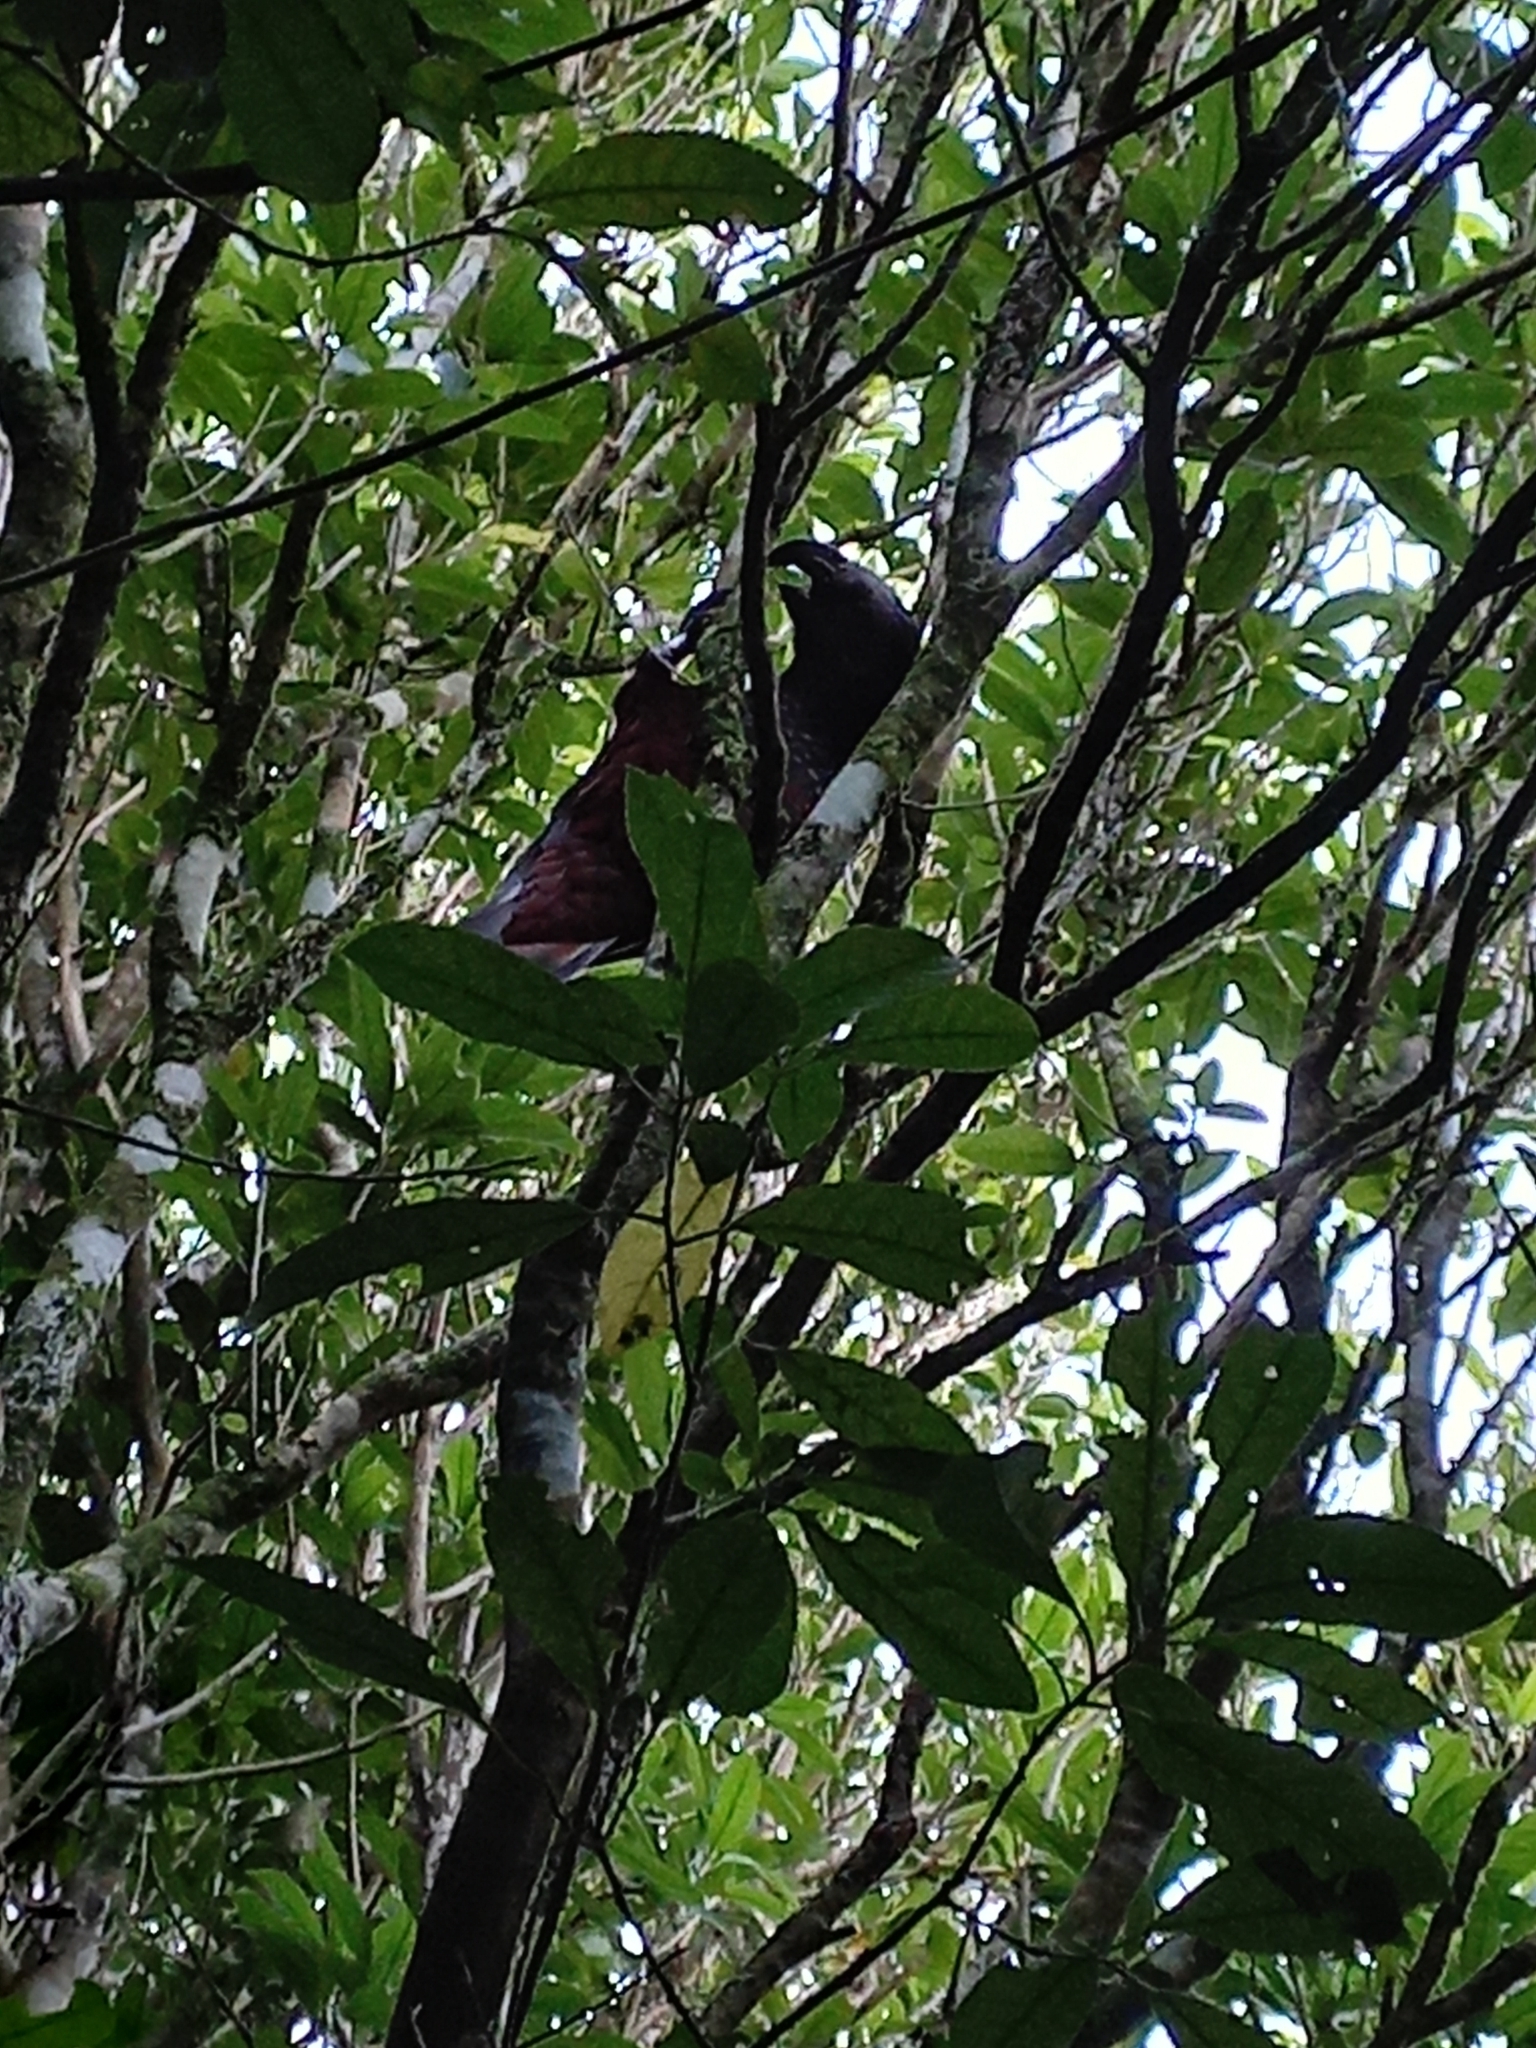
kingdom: Animalia
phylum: Chordata
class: Aves
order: Psittaciformes
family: Psittacidae
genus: Nestor
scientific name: Nestor meridionalis
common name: New zealand kaka
